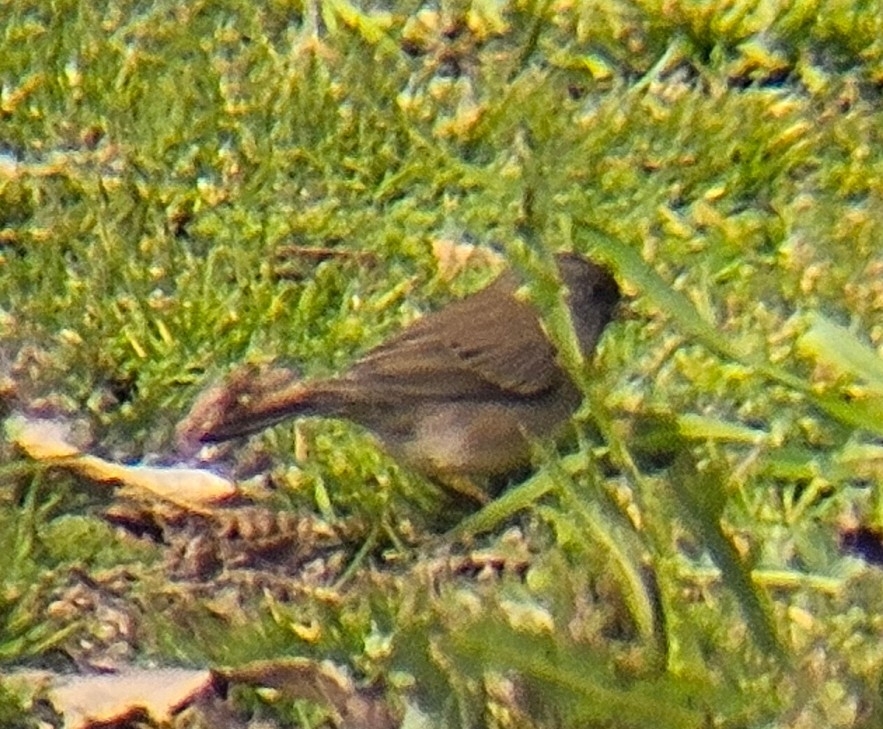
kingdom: Animalia
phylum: Chordata
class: Aves
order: Passeriformes
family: Passerellidae
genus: Junco
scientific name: Junco hyemalis
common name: Dark-eyed junco
